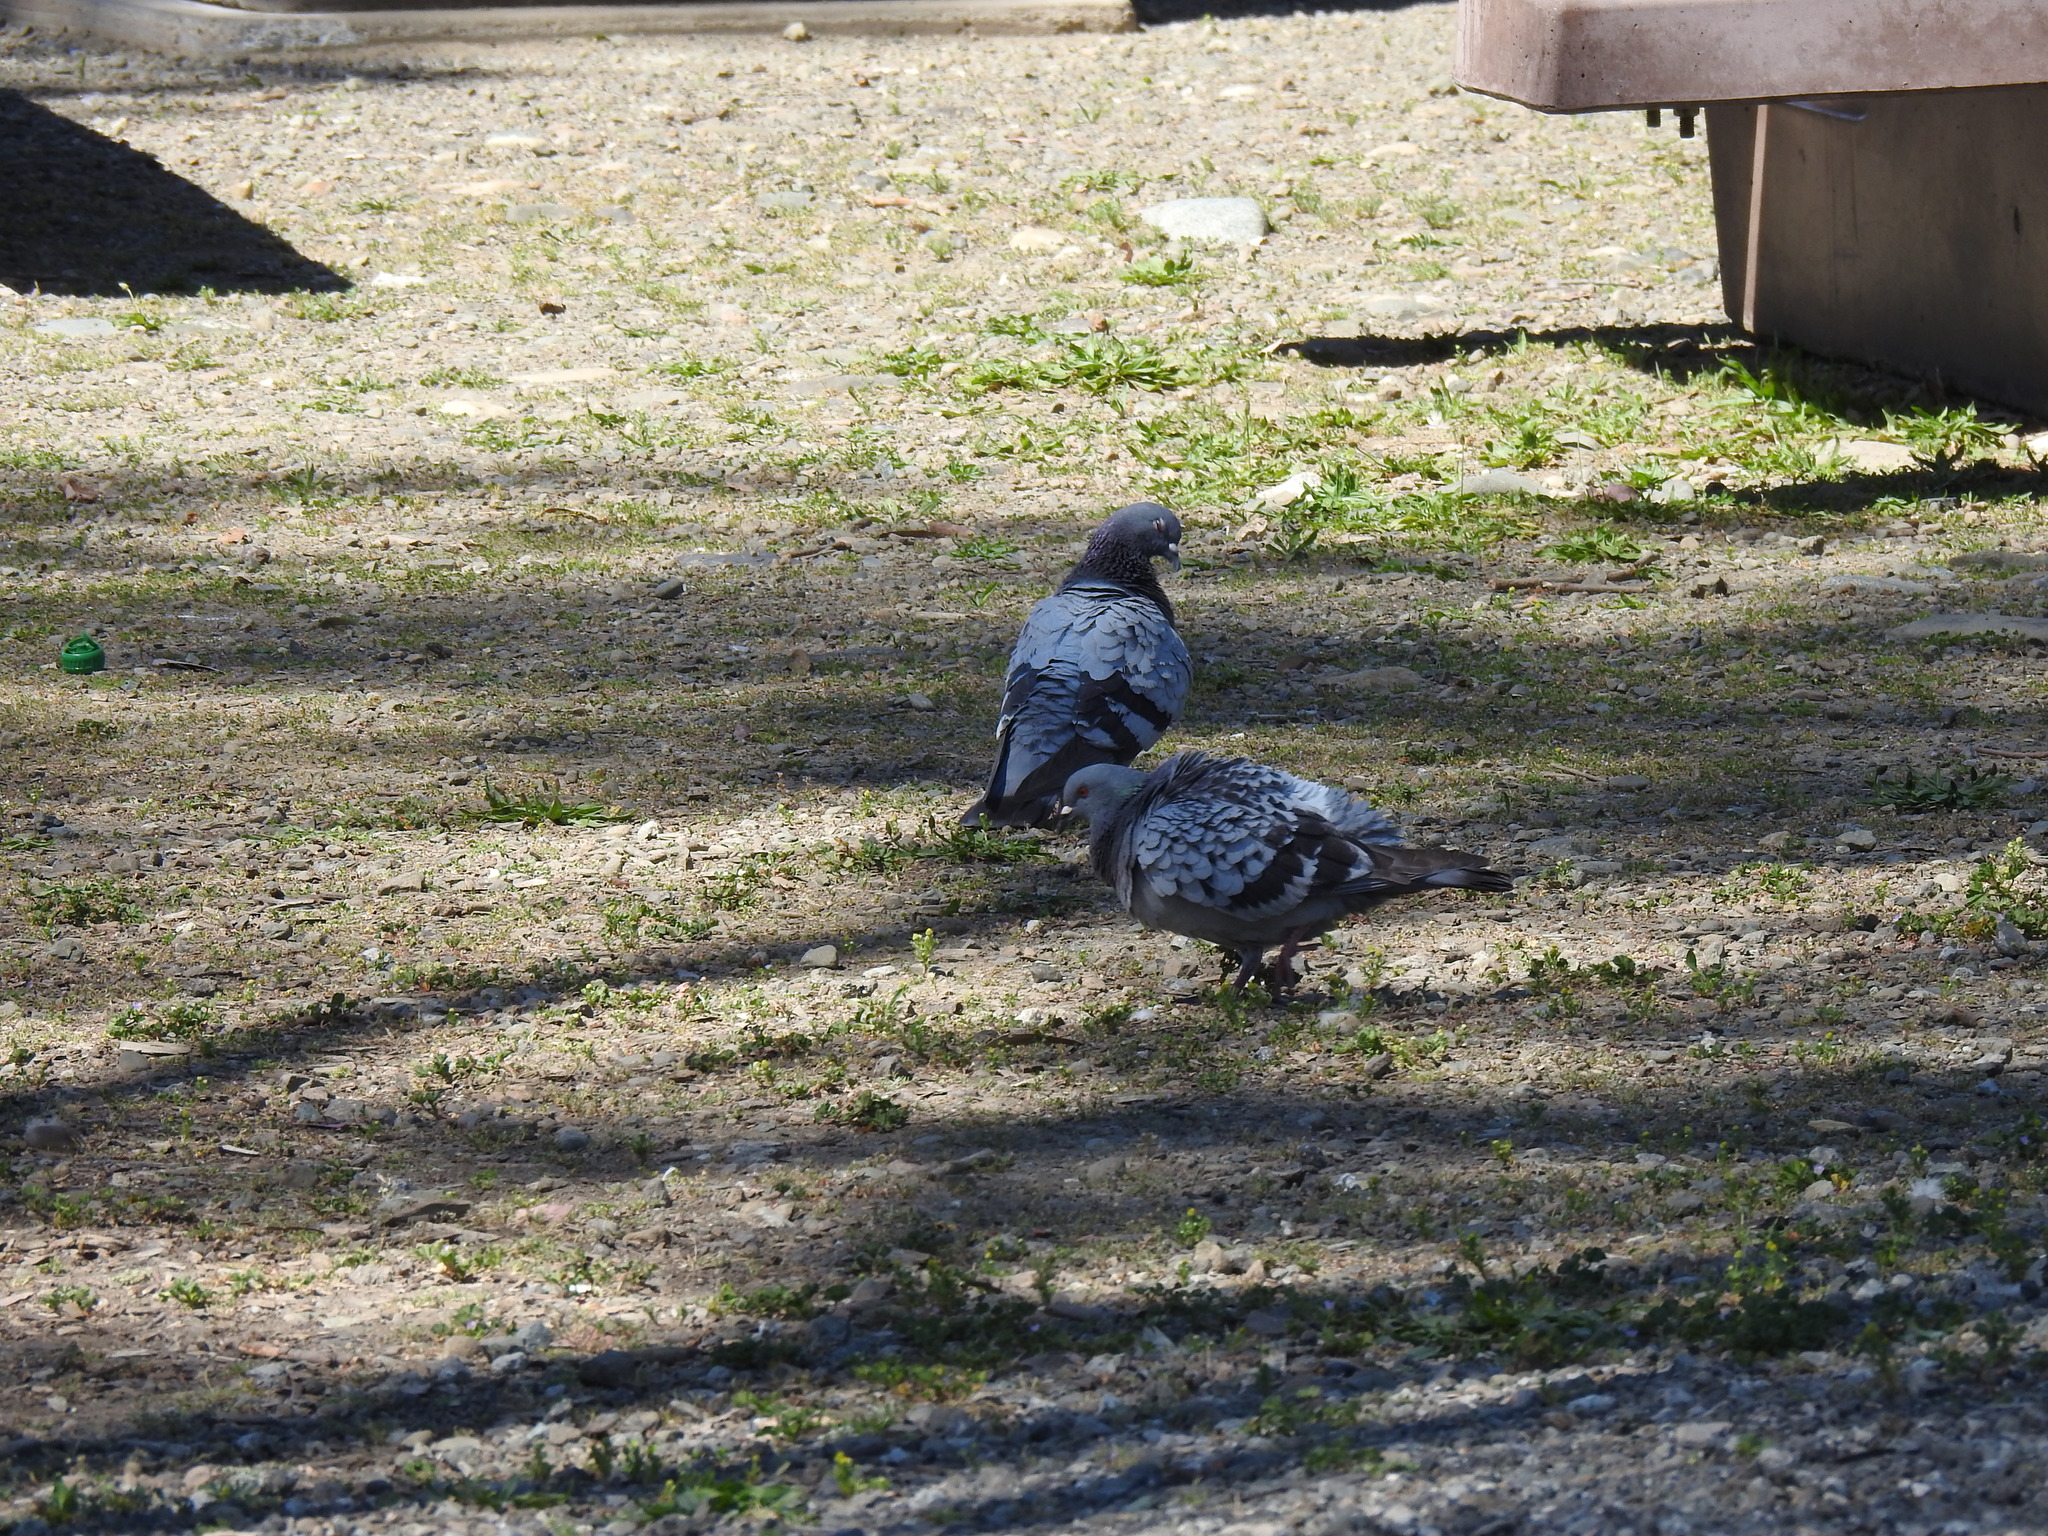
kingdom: Animalia
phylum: Chordata
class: Aves
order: Columbiformes
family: Columbidae
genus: Columba
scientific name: Columba livia
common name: Rock pigeon
